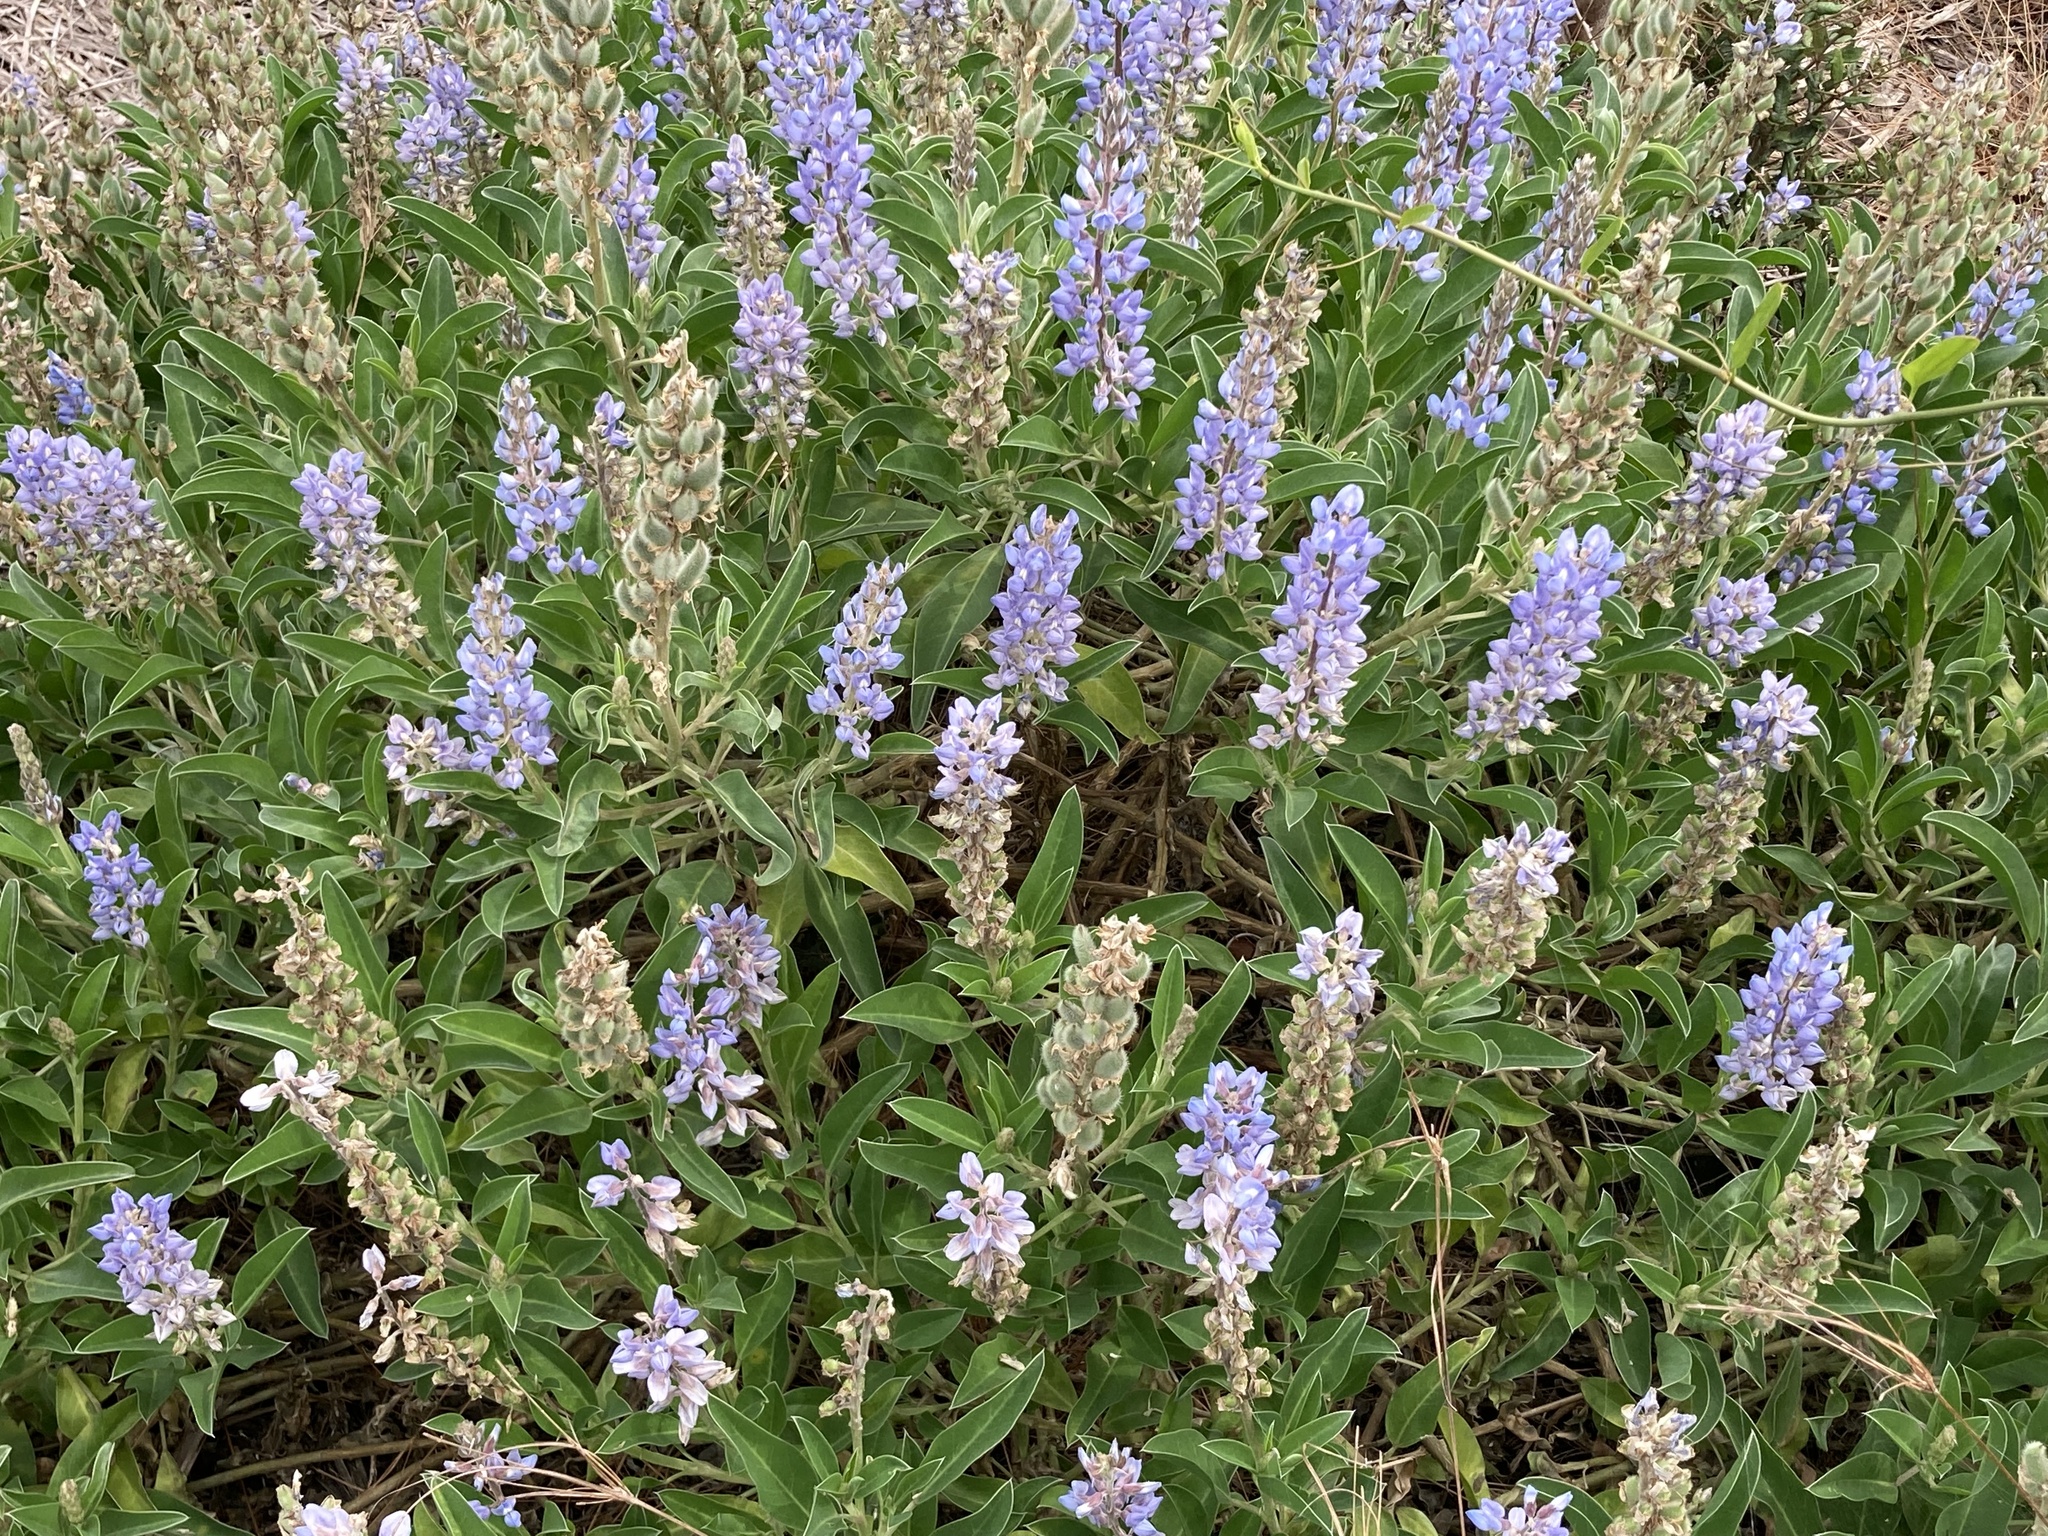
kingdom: Plantae
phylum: Tracheophyta
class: Magnoliopsida
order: Fabales
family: Fabaceae
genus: Lupinus
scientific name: Lupinus
